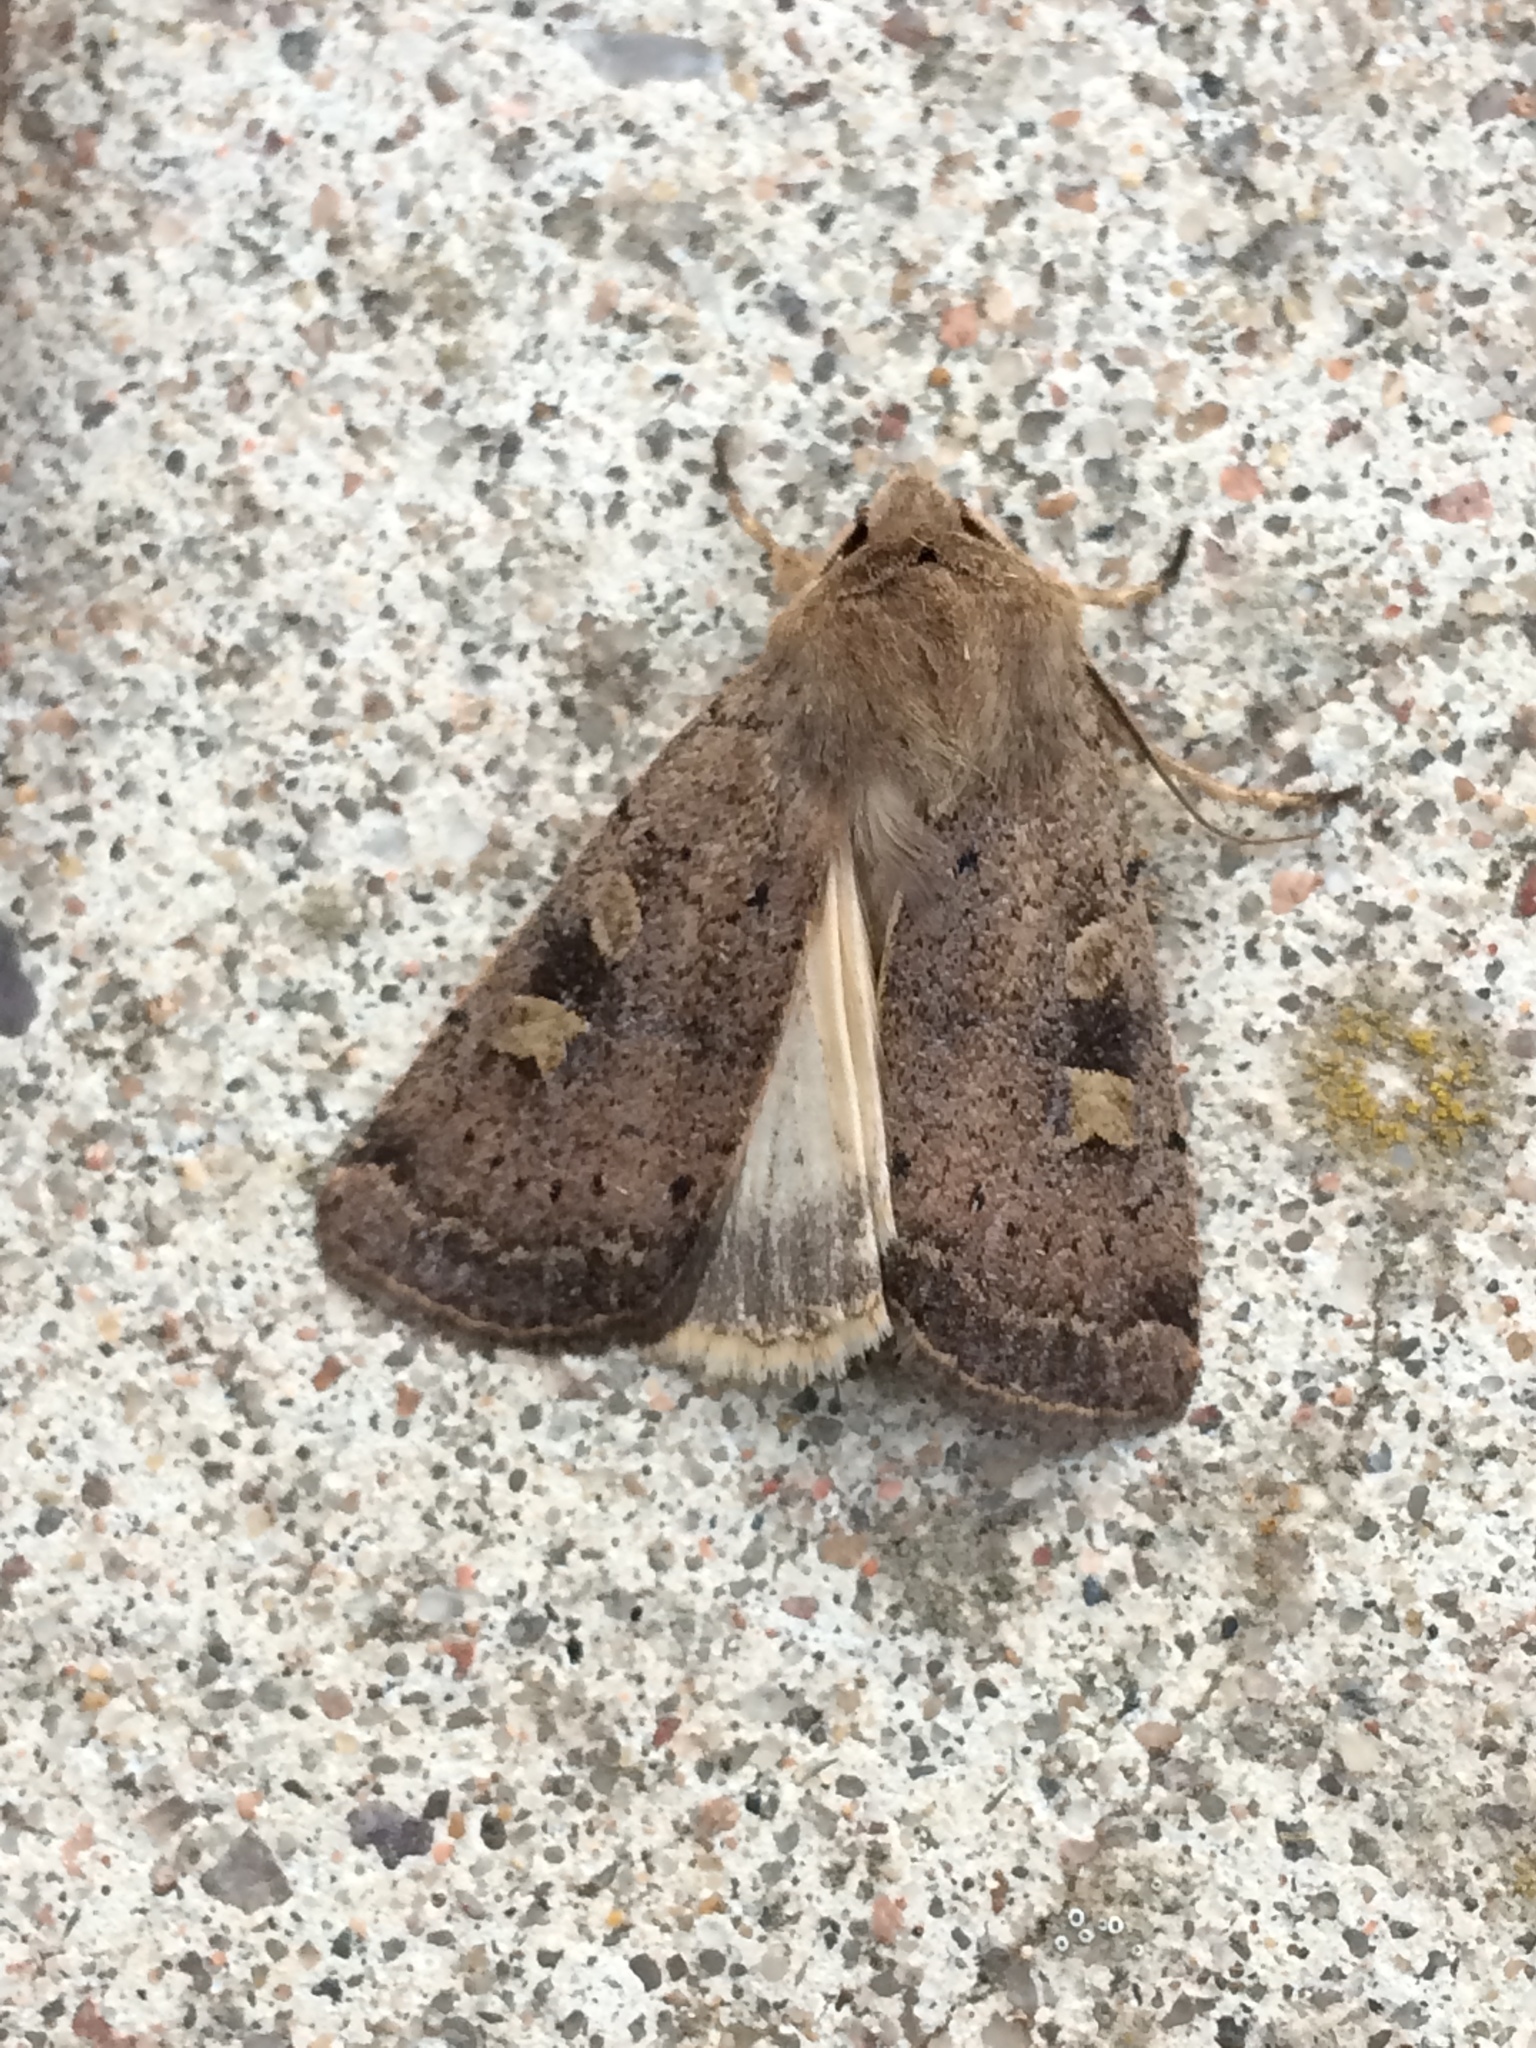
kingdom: Animalia
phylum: Arthropoda
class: Insecta
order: Lepidoptera
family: Noctuidae
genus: Xestia
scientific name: Xestia xanthographa
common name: Square-spot rustic
